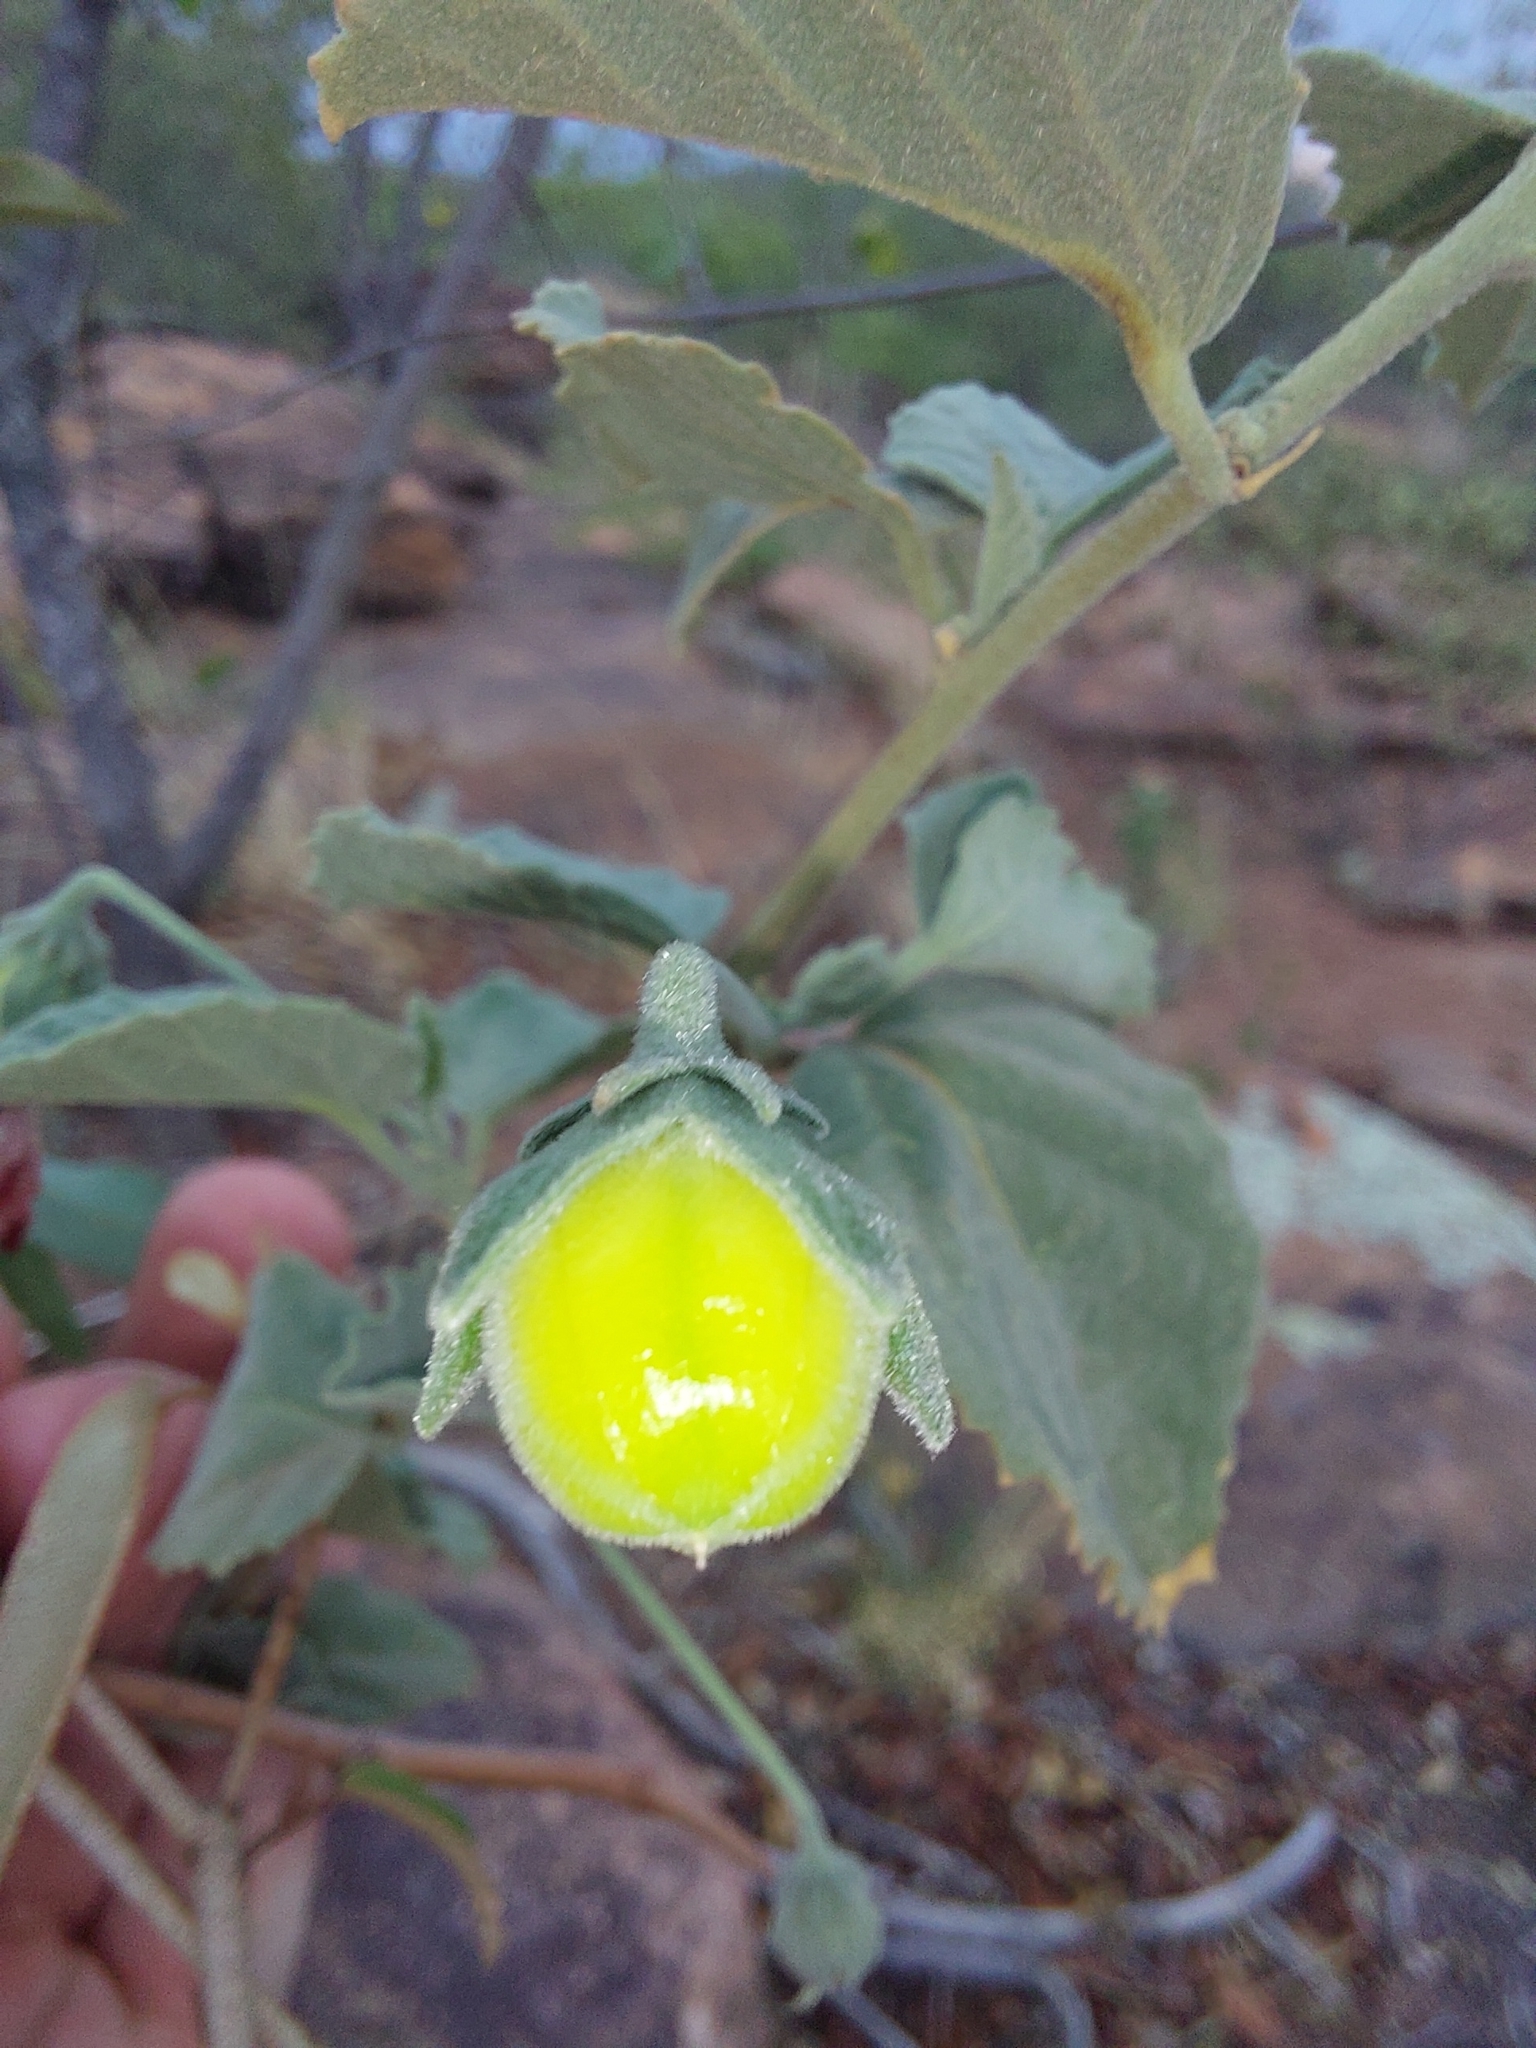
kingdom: Plantae
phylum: Tracheophyta
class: Magnoliopsida
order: Malvales
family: Malvaceae
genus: Hibiscus
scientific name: Hibiscus waterbergensis
